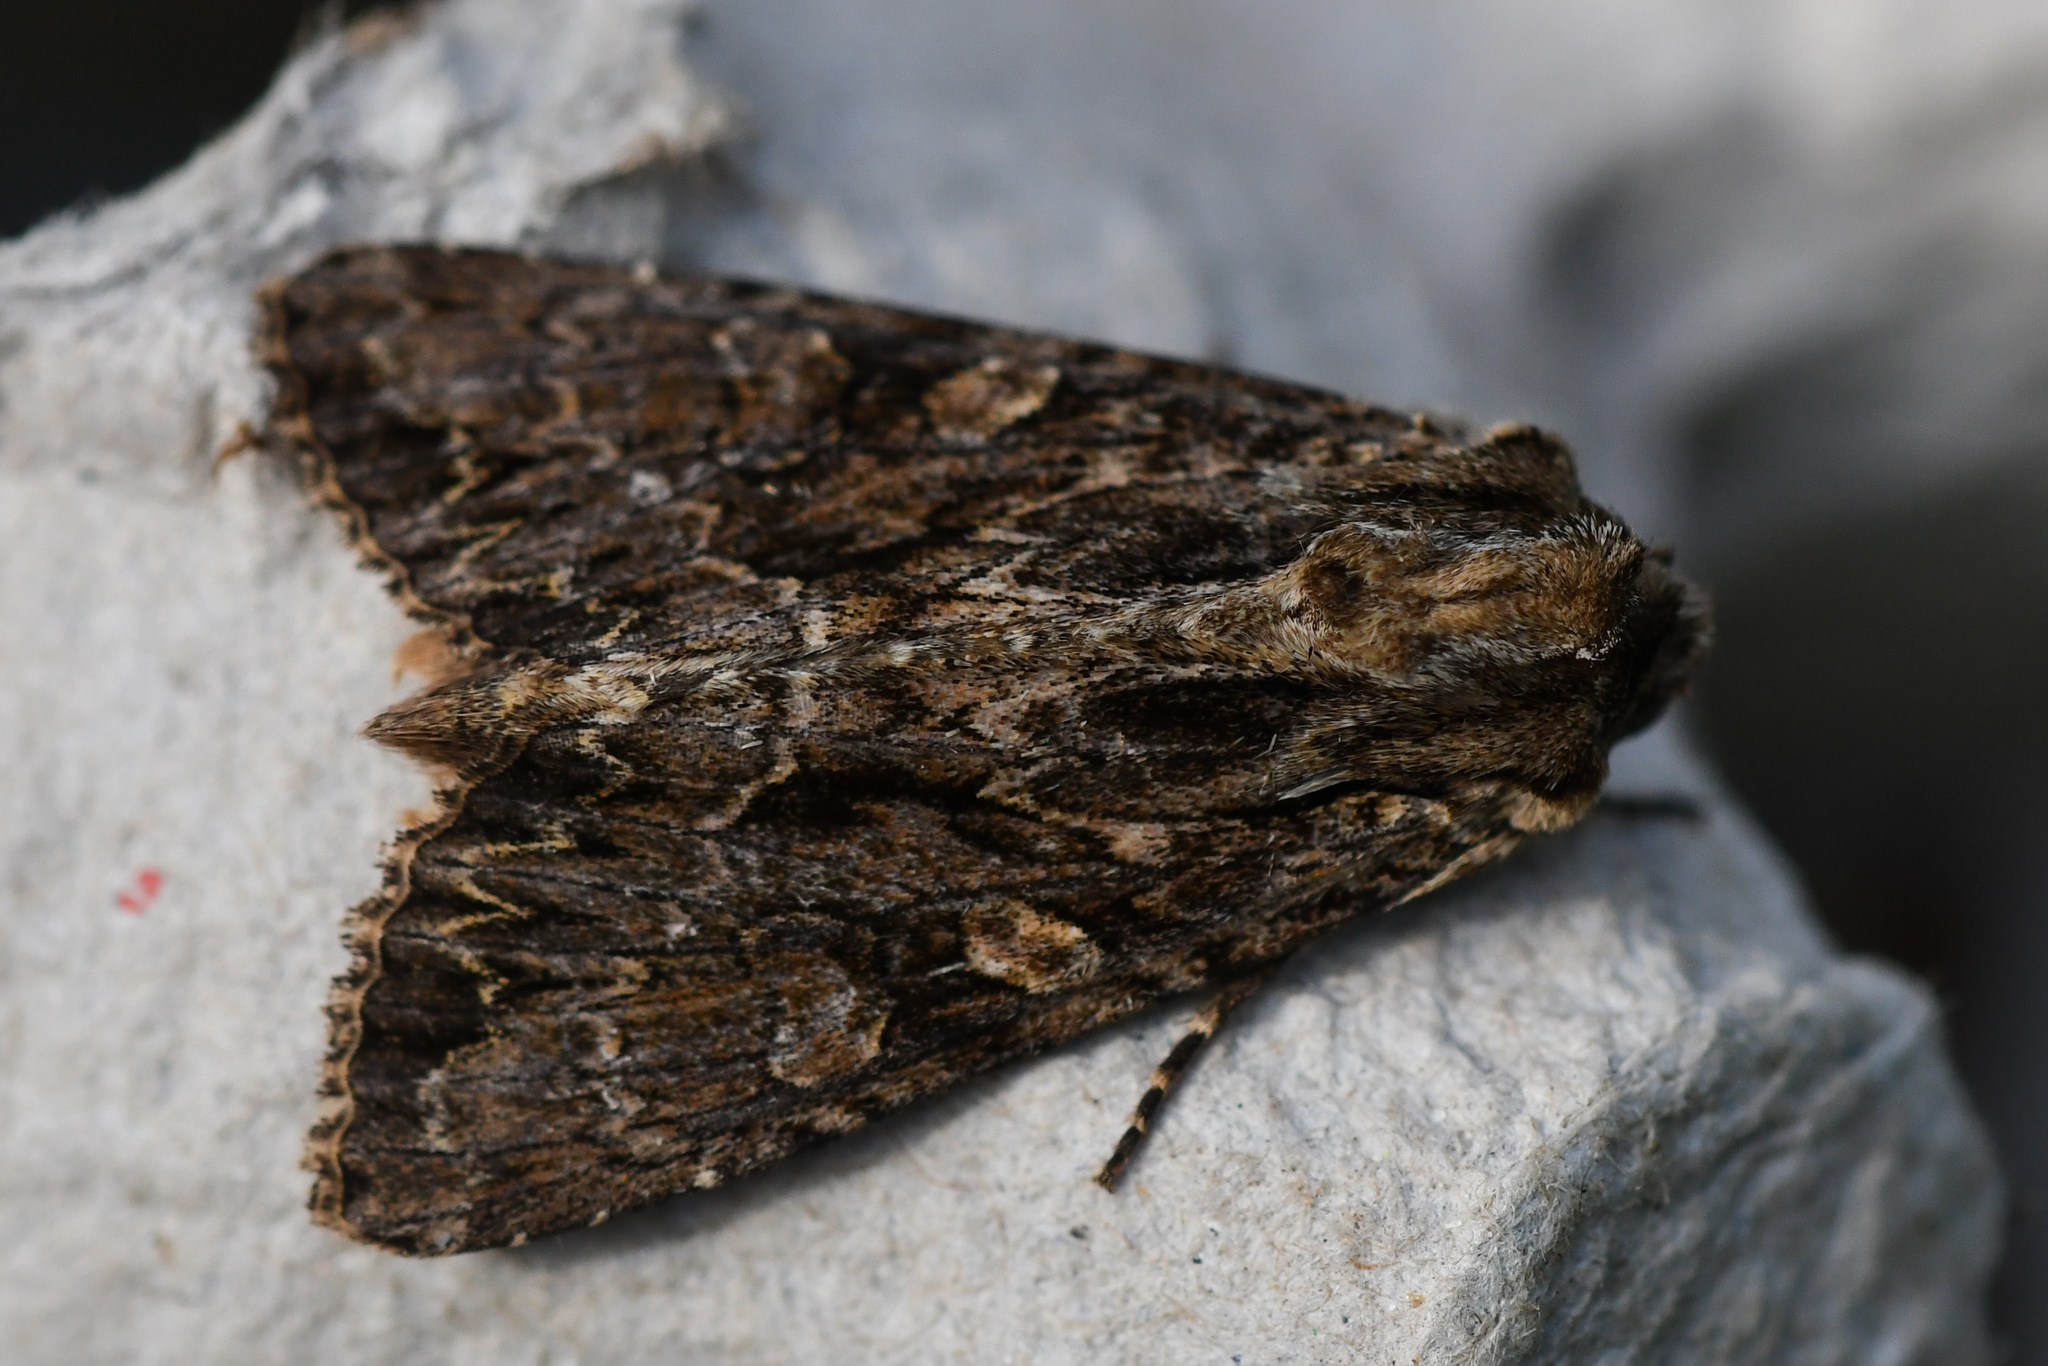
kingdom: Animalia
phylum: Arthropoda
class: Insecta
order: Lepidoptera
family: Noctuidae
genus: Apamea
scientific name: Apamea monoglypha
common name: Dark arches
